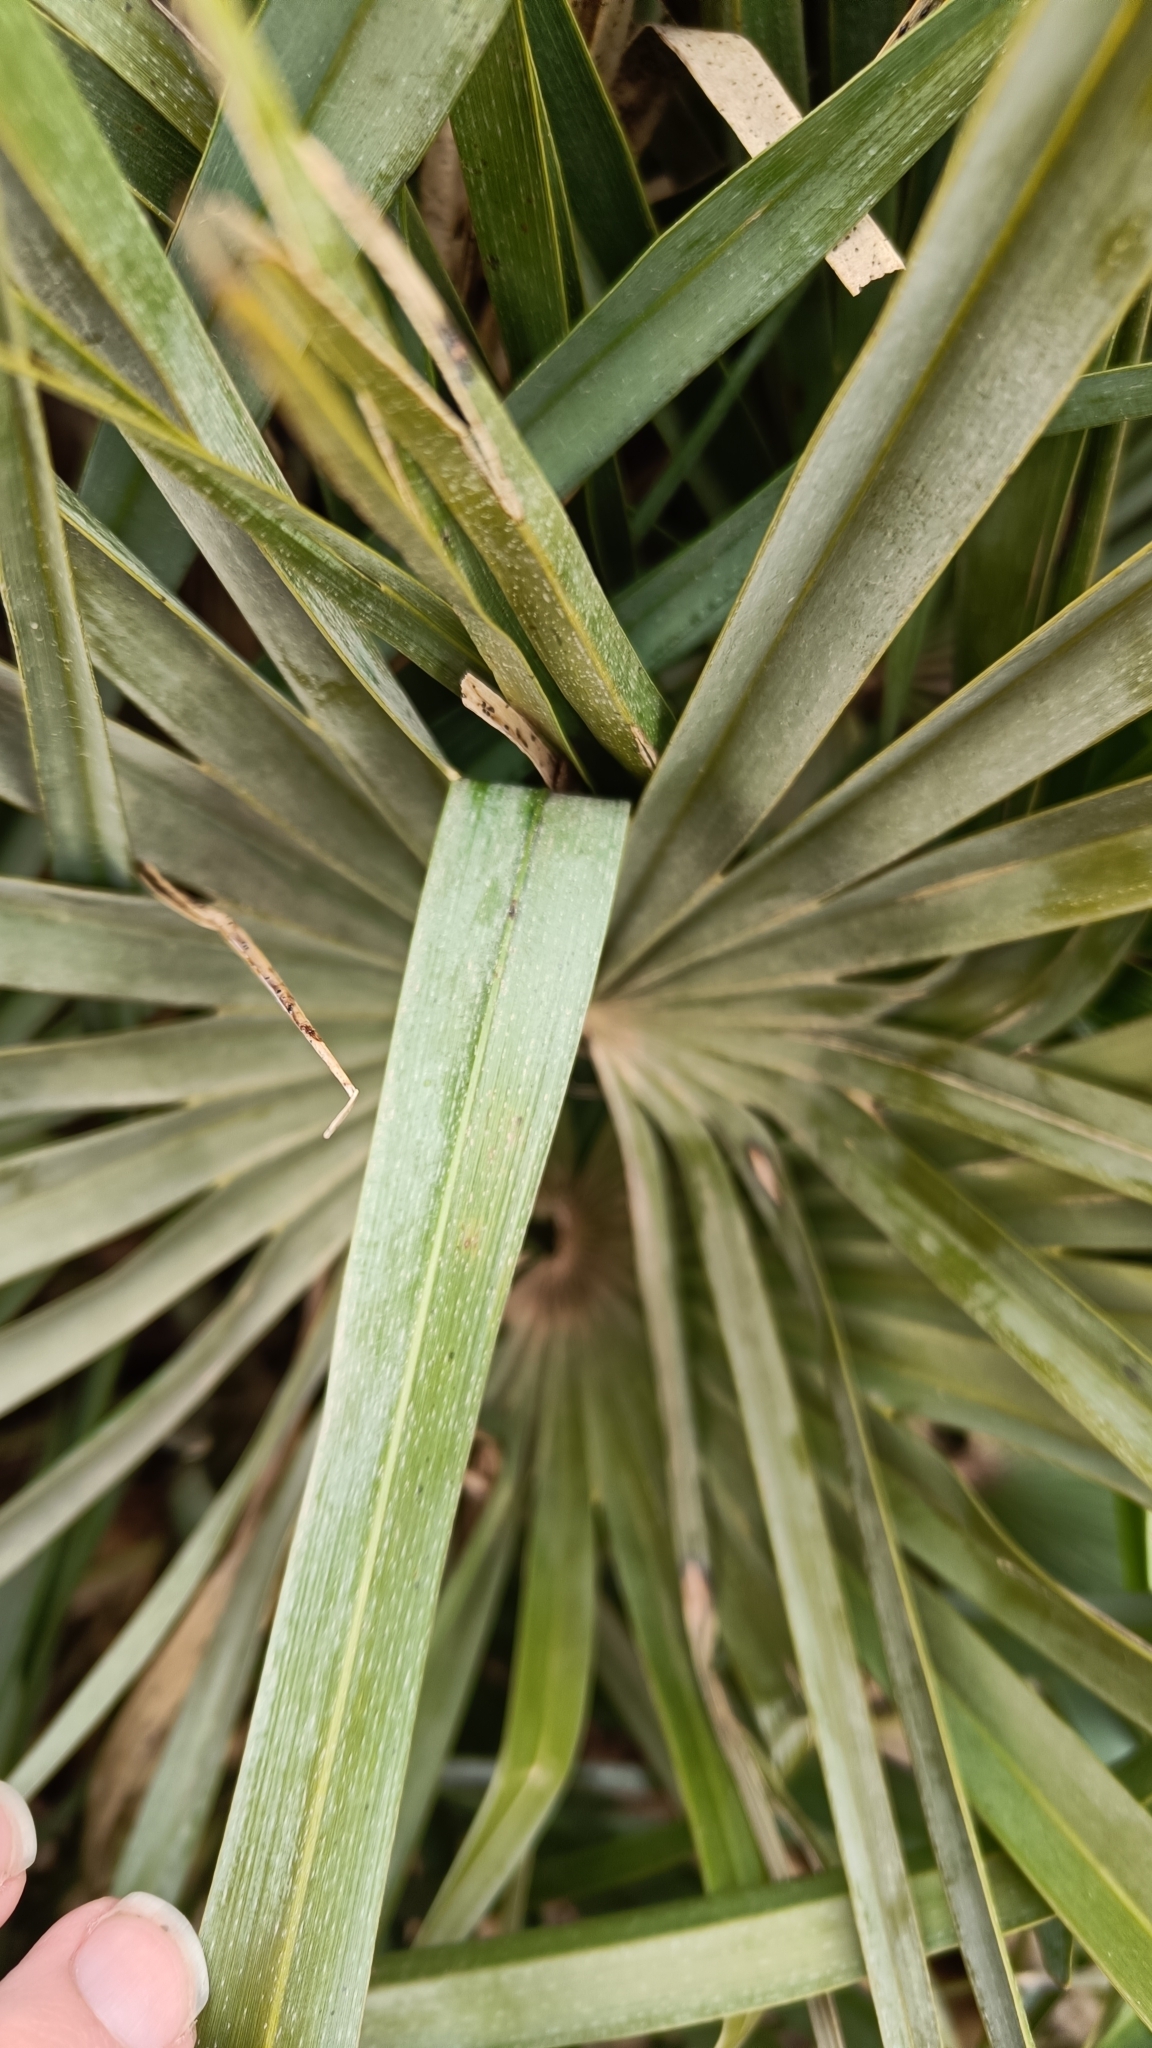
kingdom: Plantae
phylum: Tracheophyta
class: Liliopsida
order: Arecales
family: Arecaceae
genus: Chamaerops
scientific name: Chamaerops humilis
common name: Dwarf fan palm
